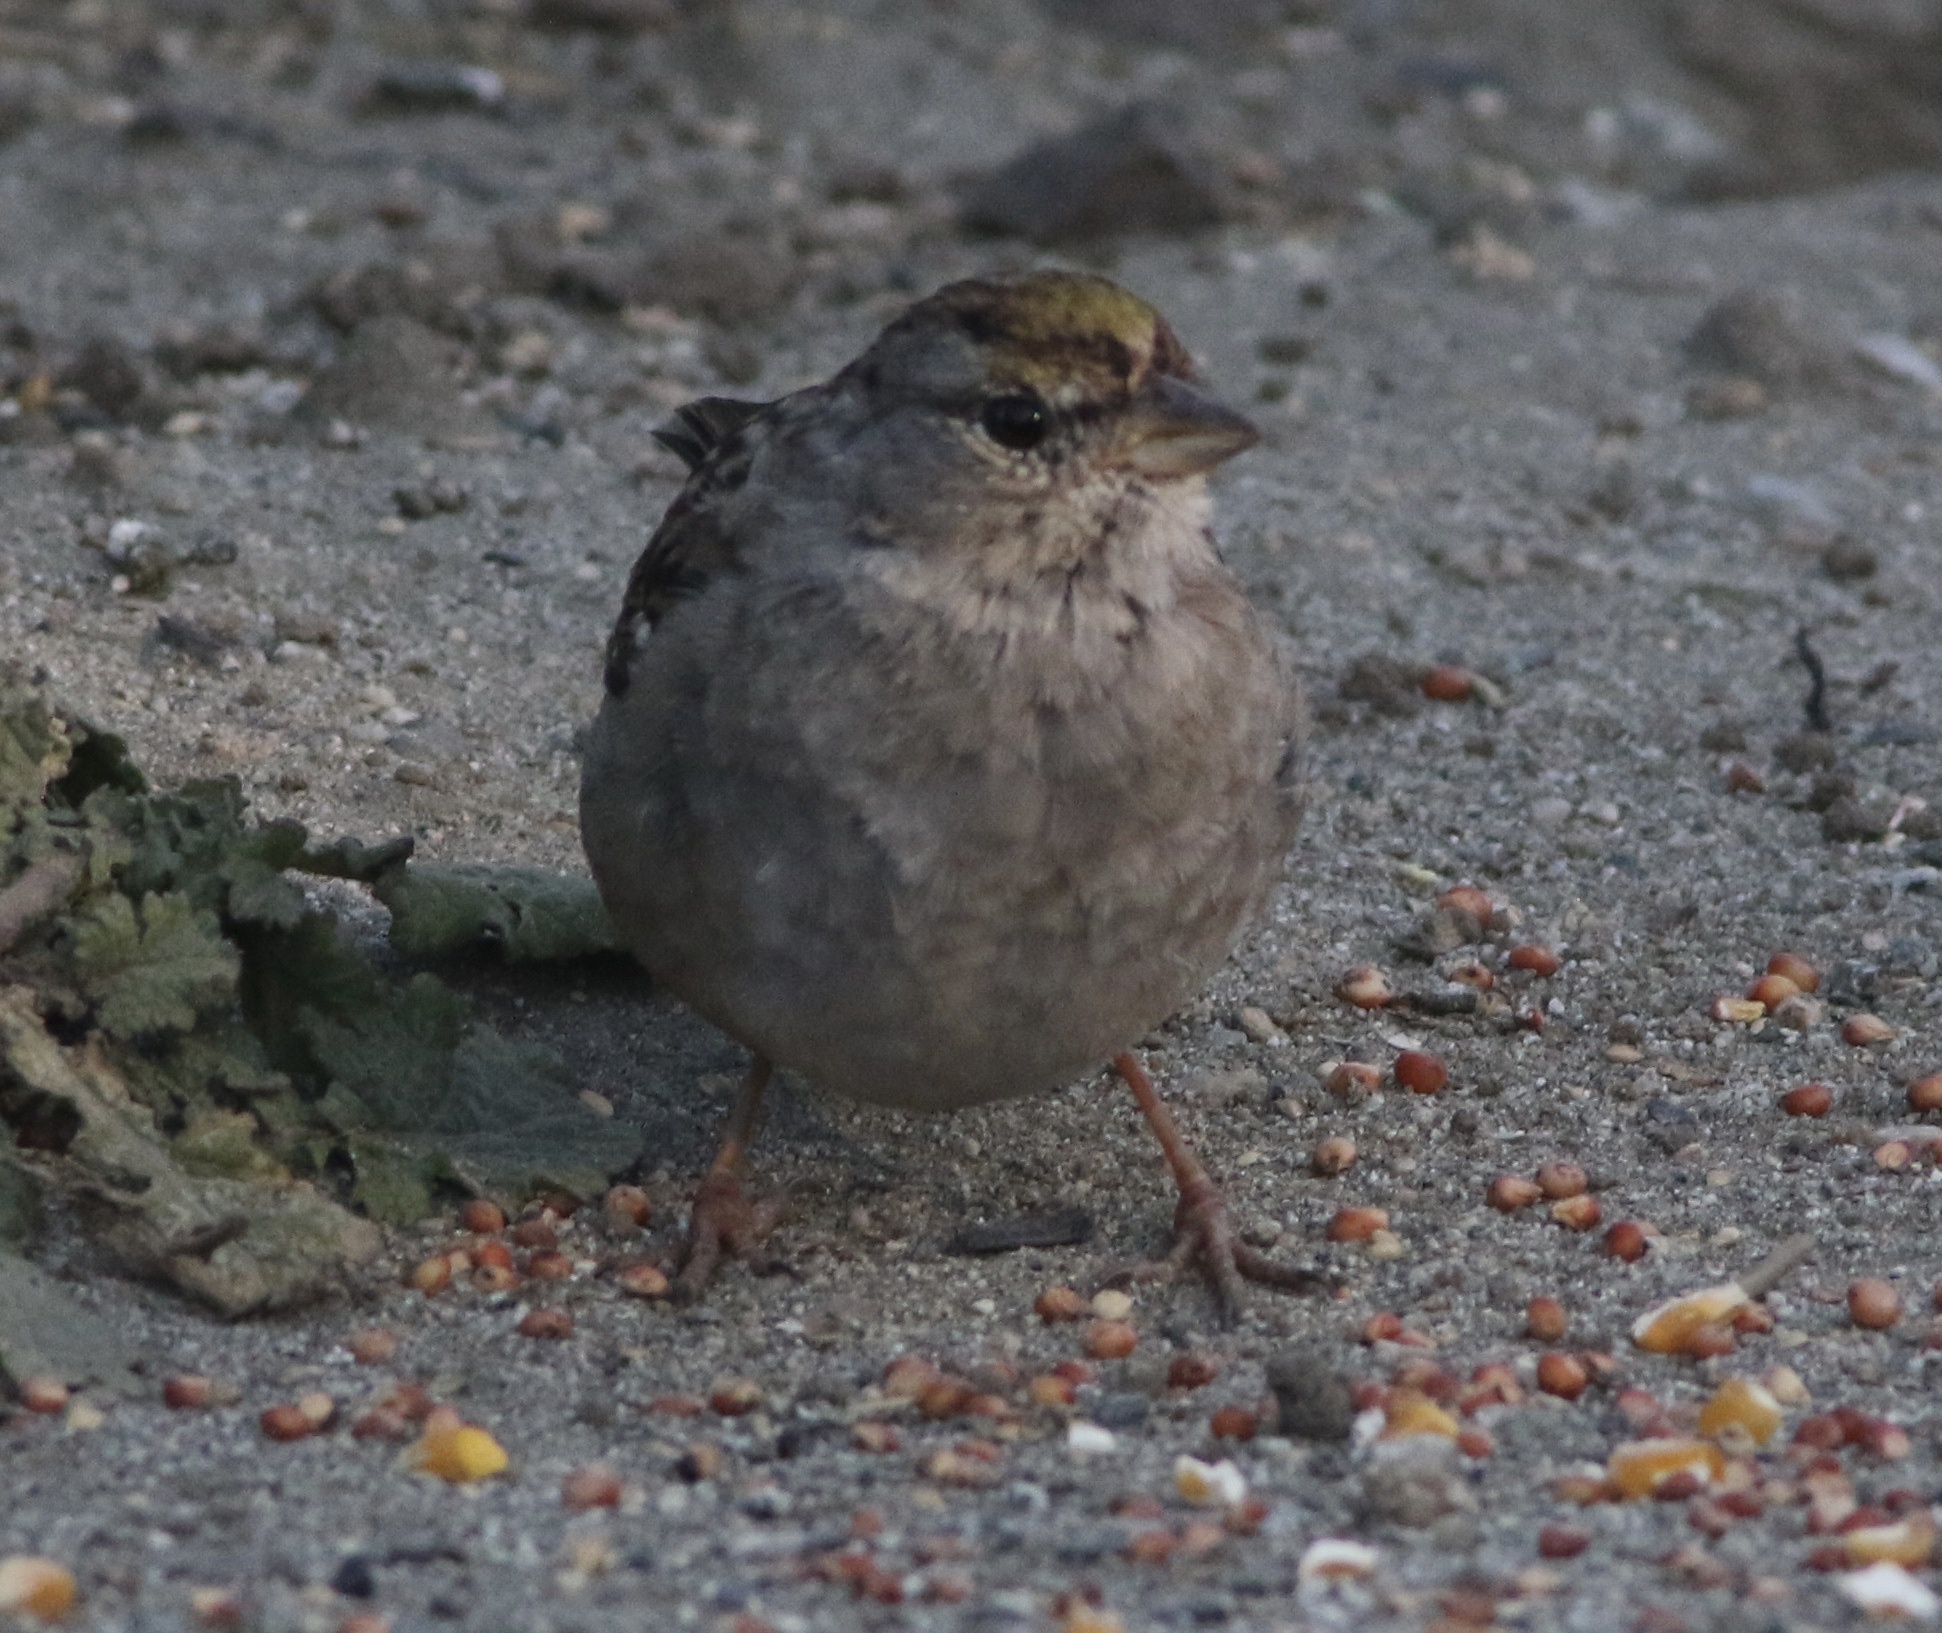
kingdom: Animalia
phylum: Chordata
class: Aves
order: Passeriformes
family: Passerellidae
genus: Zonotrichia
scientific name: Zonotrichia atricapilla
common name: Golden-crowned sparrow
